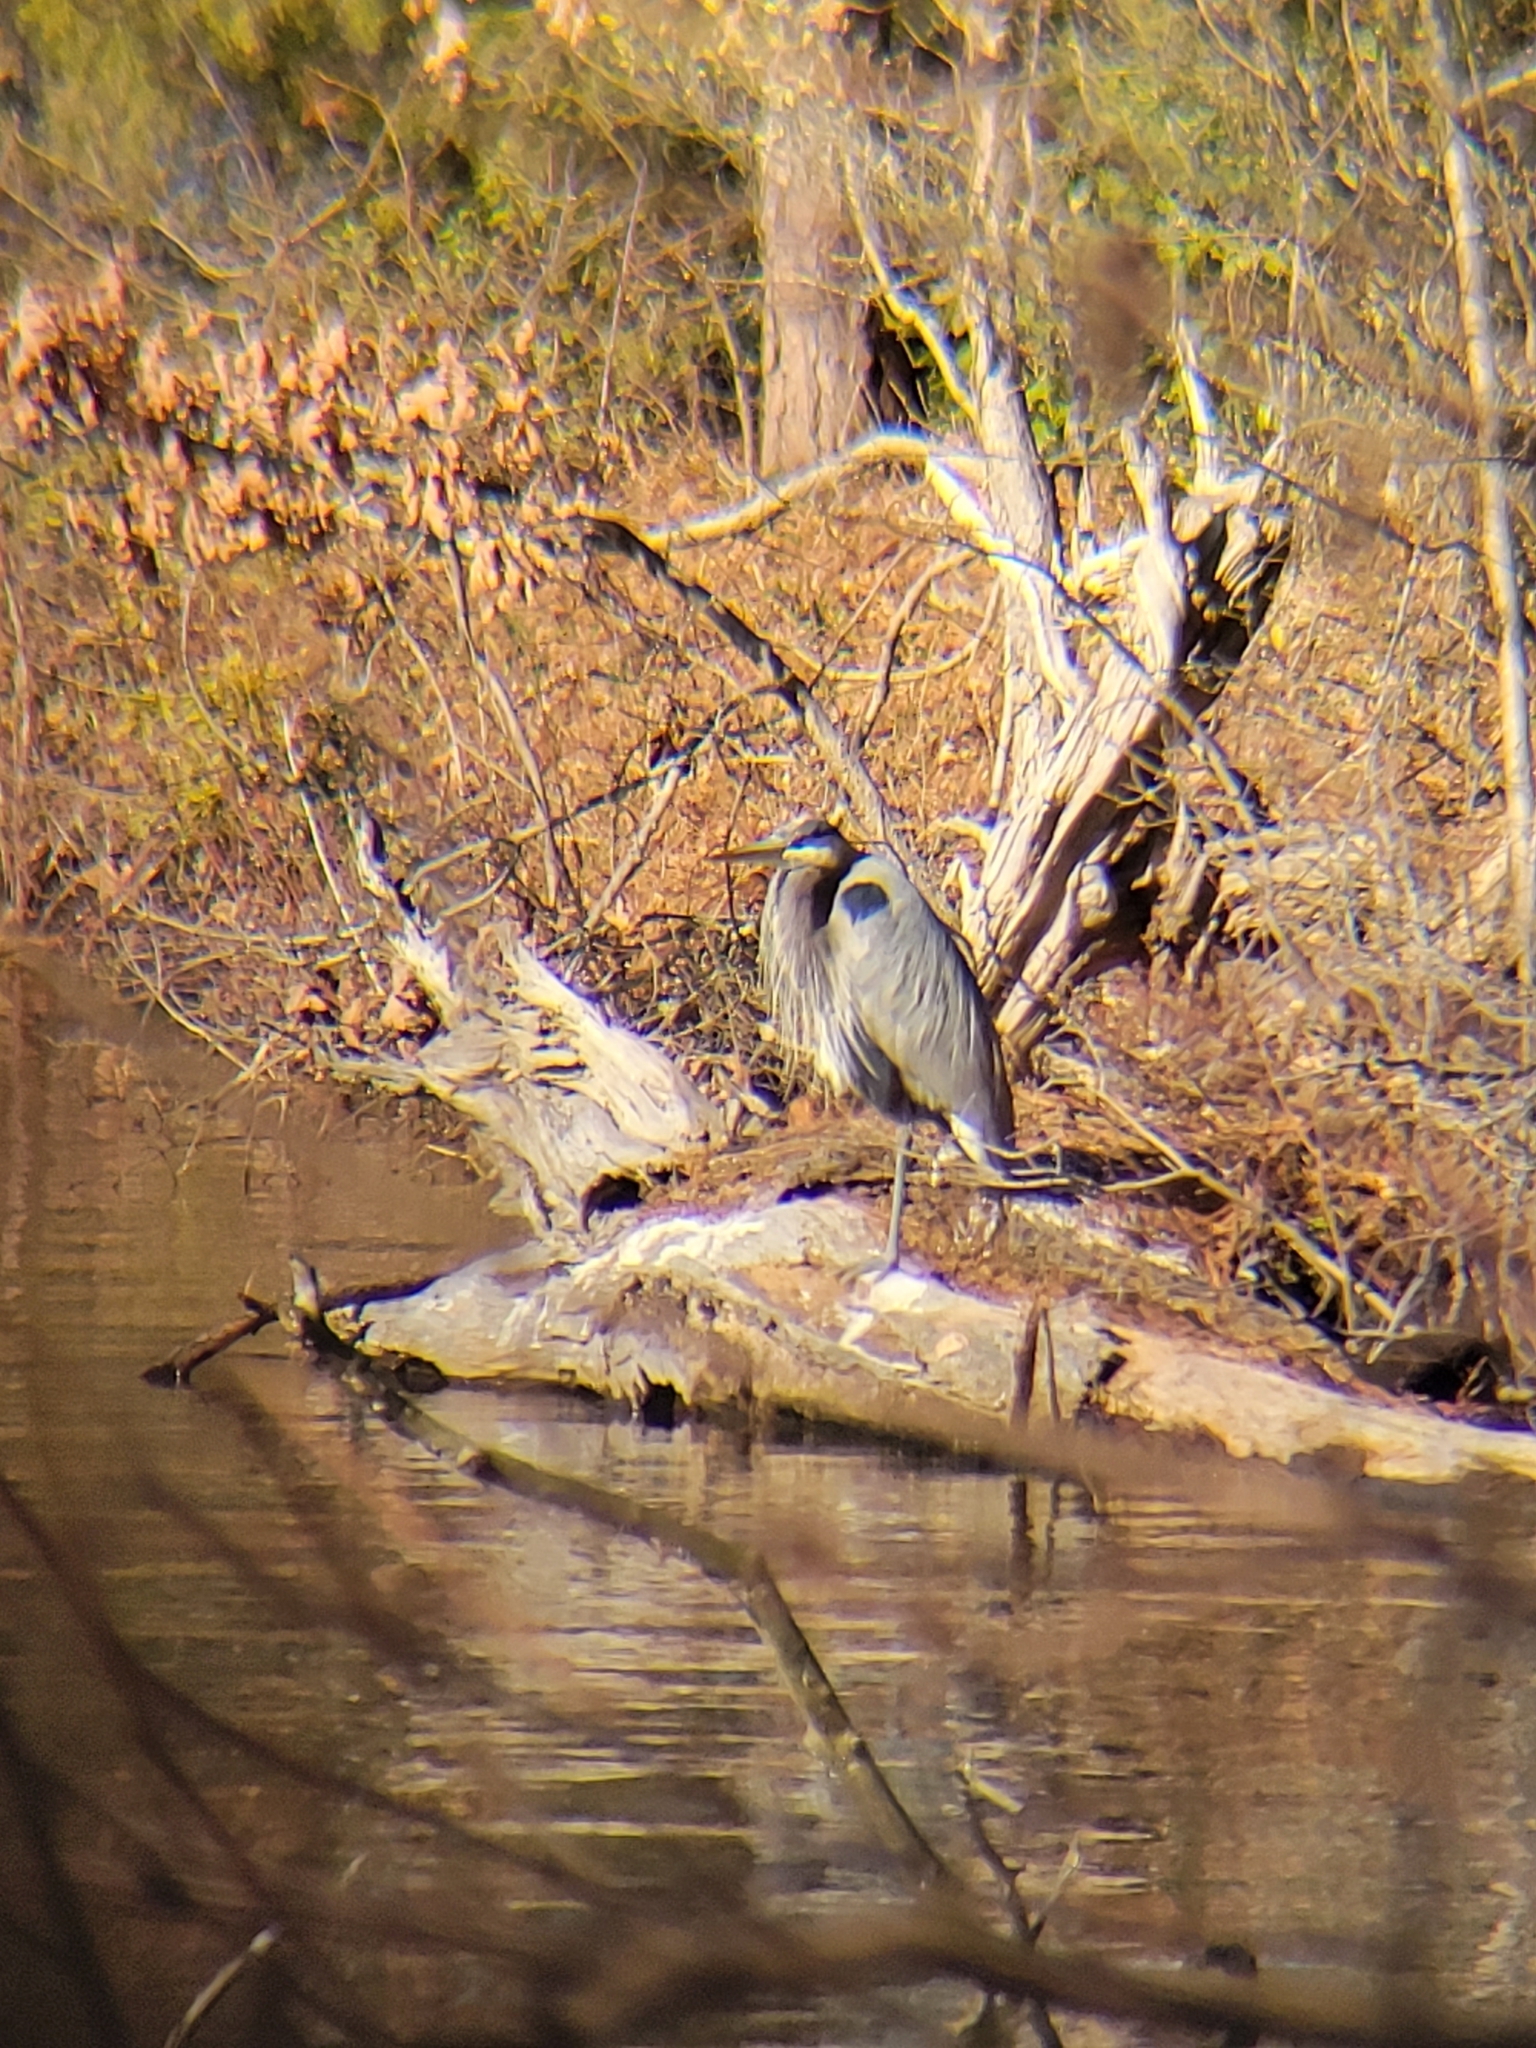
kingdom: Animalia
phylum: Chordata
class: Aves
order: Pelecaniformes
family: Ardeidae
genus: Ardea
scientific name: Ardea herodias
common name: Great blue heron
